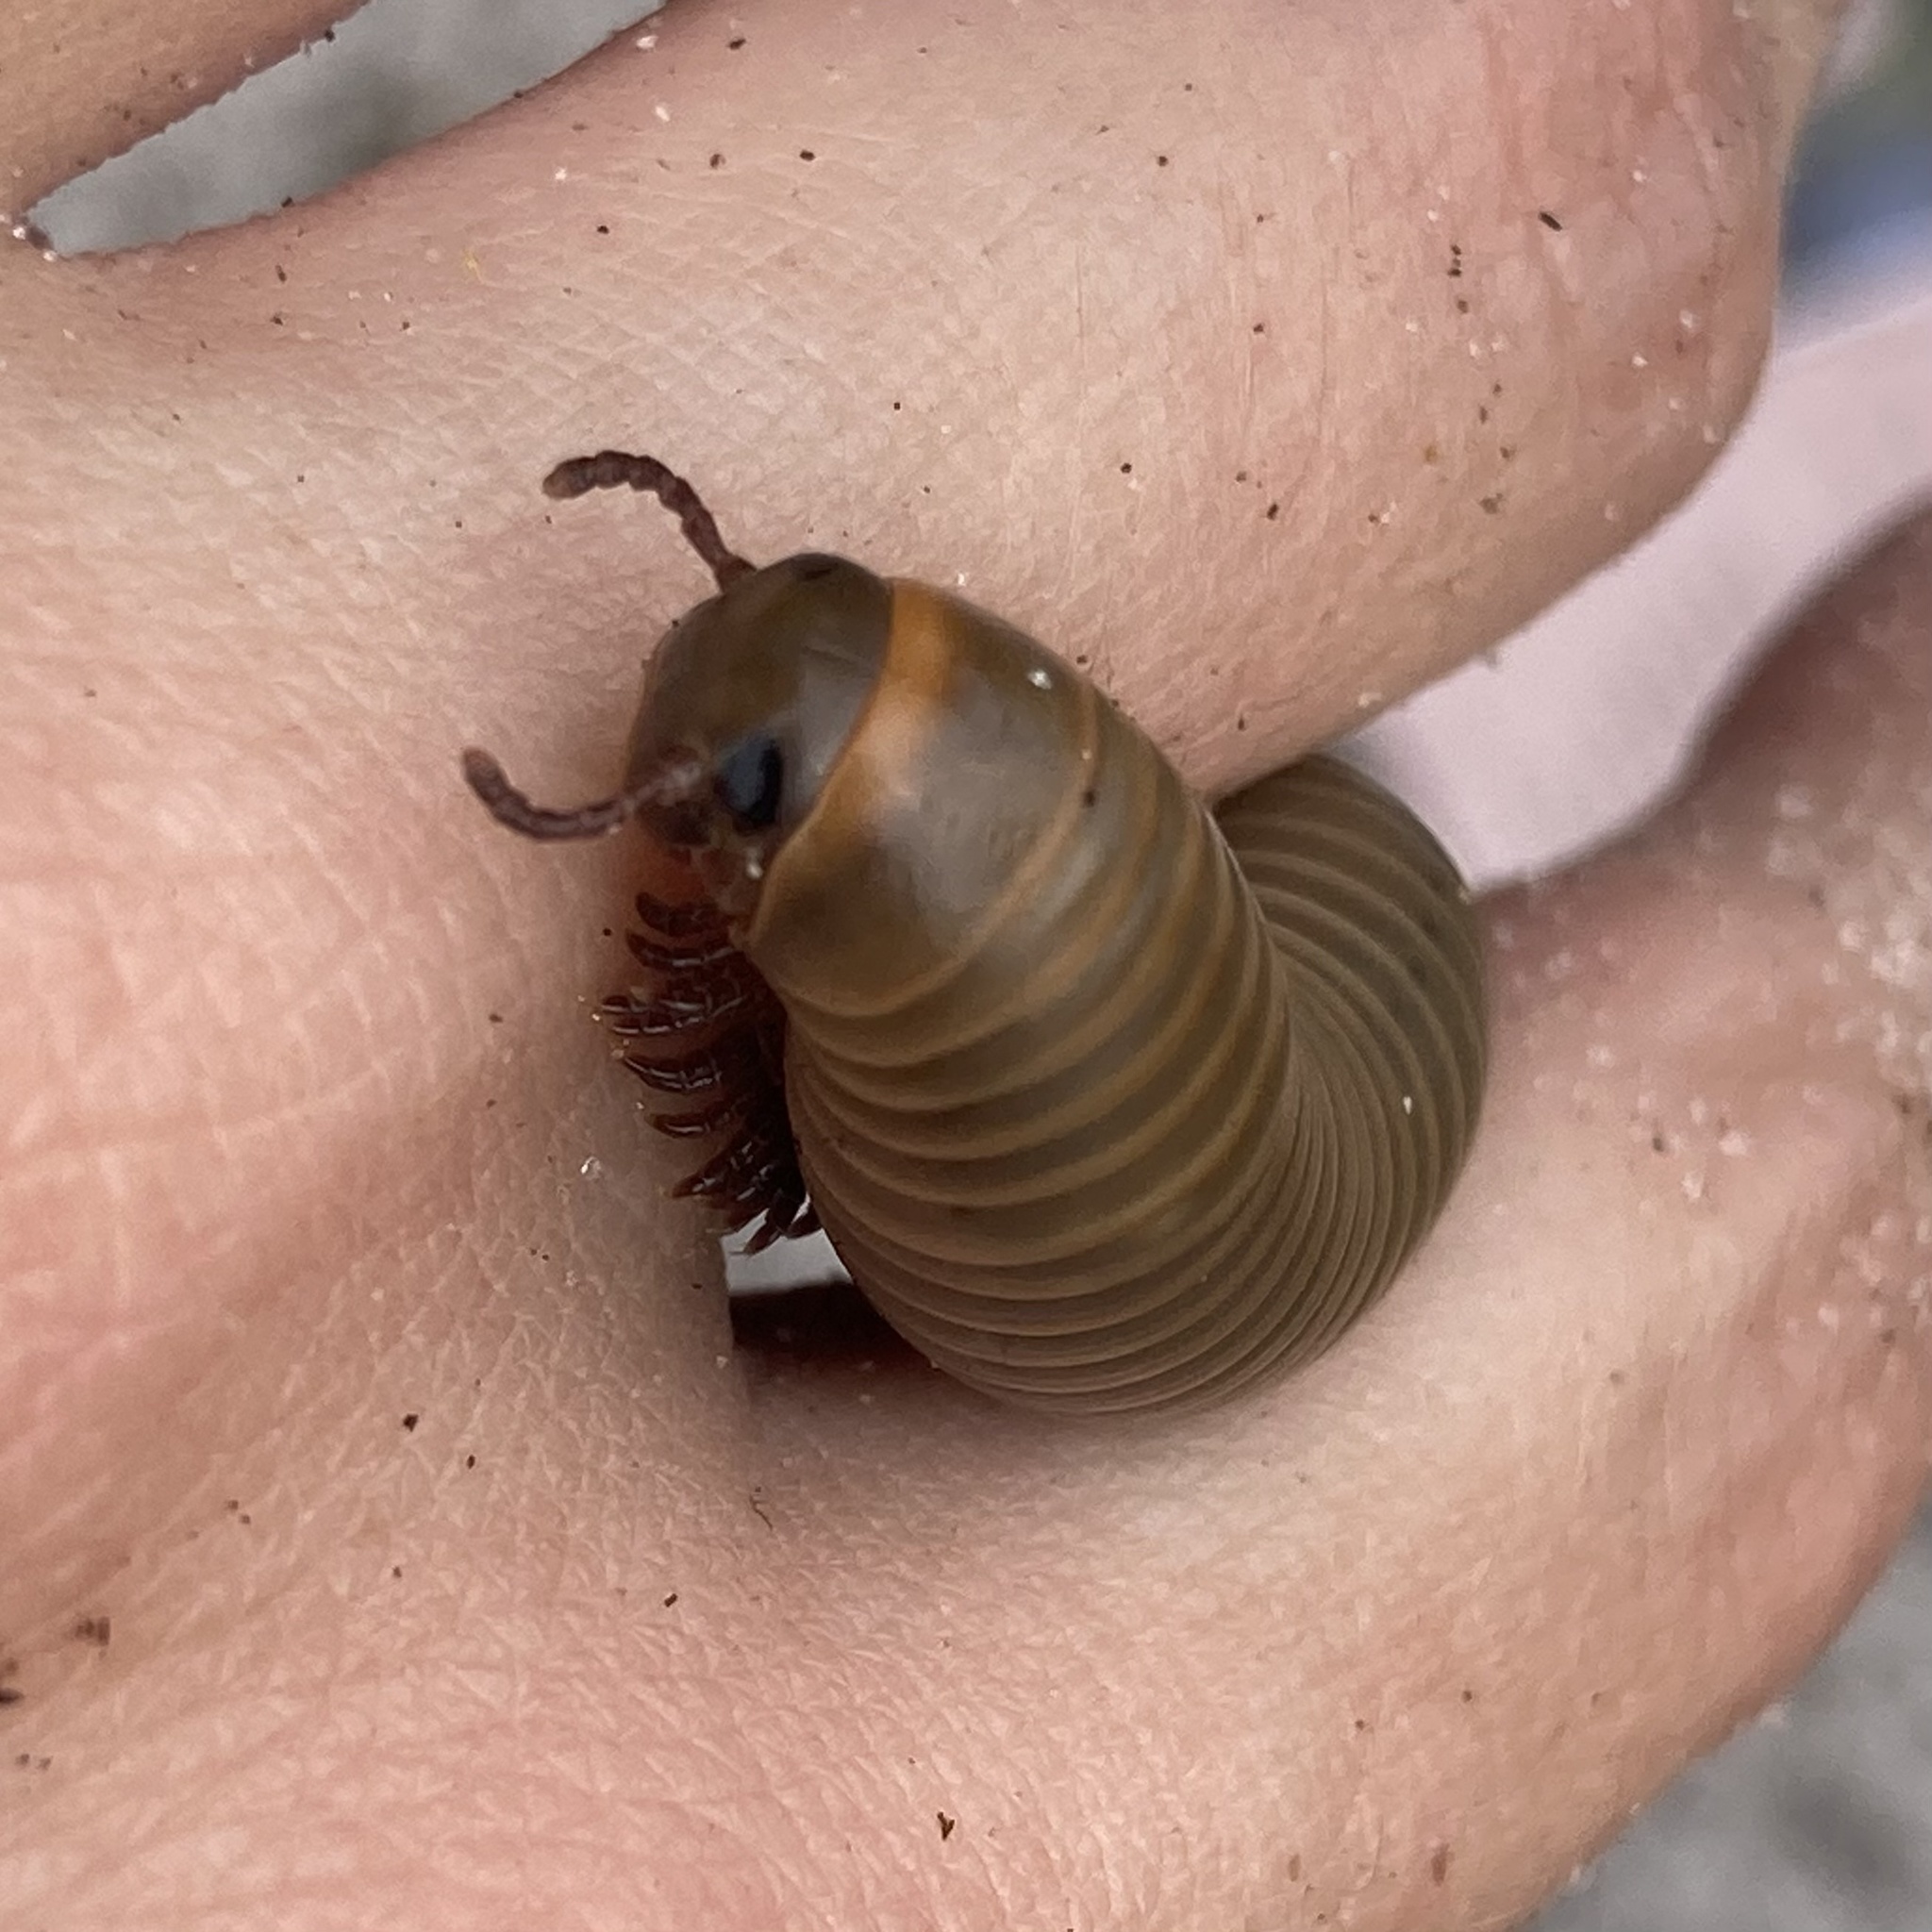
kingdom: Animalia
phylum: Arthropoda
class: Diplopoda
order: Spirobolida
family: Spirobolidae
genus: Narceus
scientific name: Narceus gordanus
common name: Grayish-green millipede
